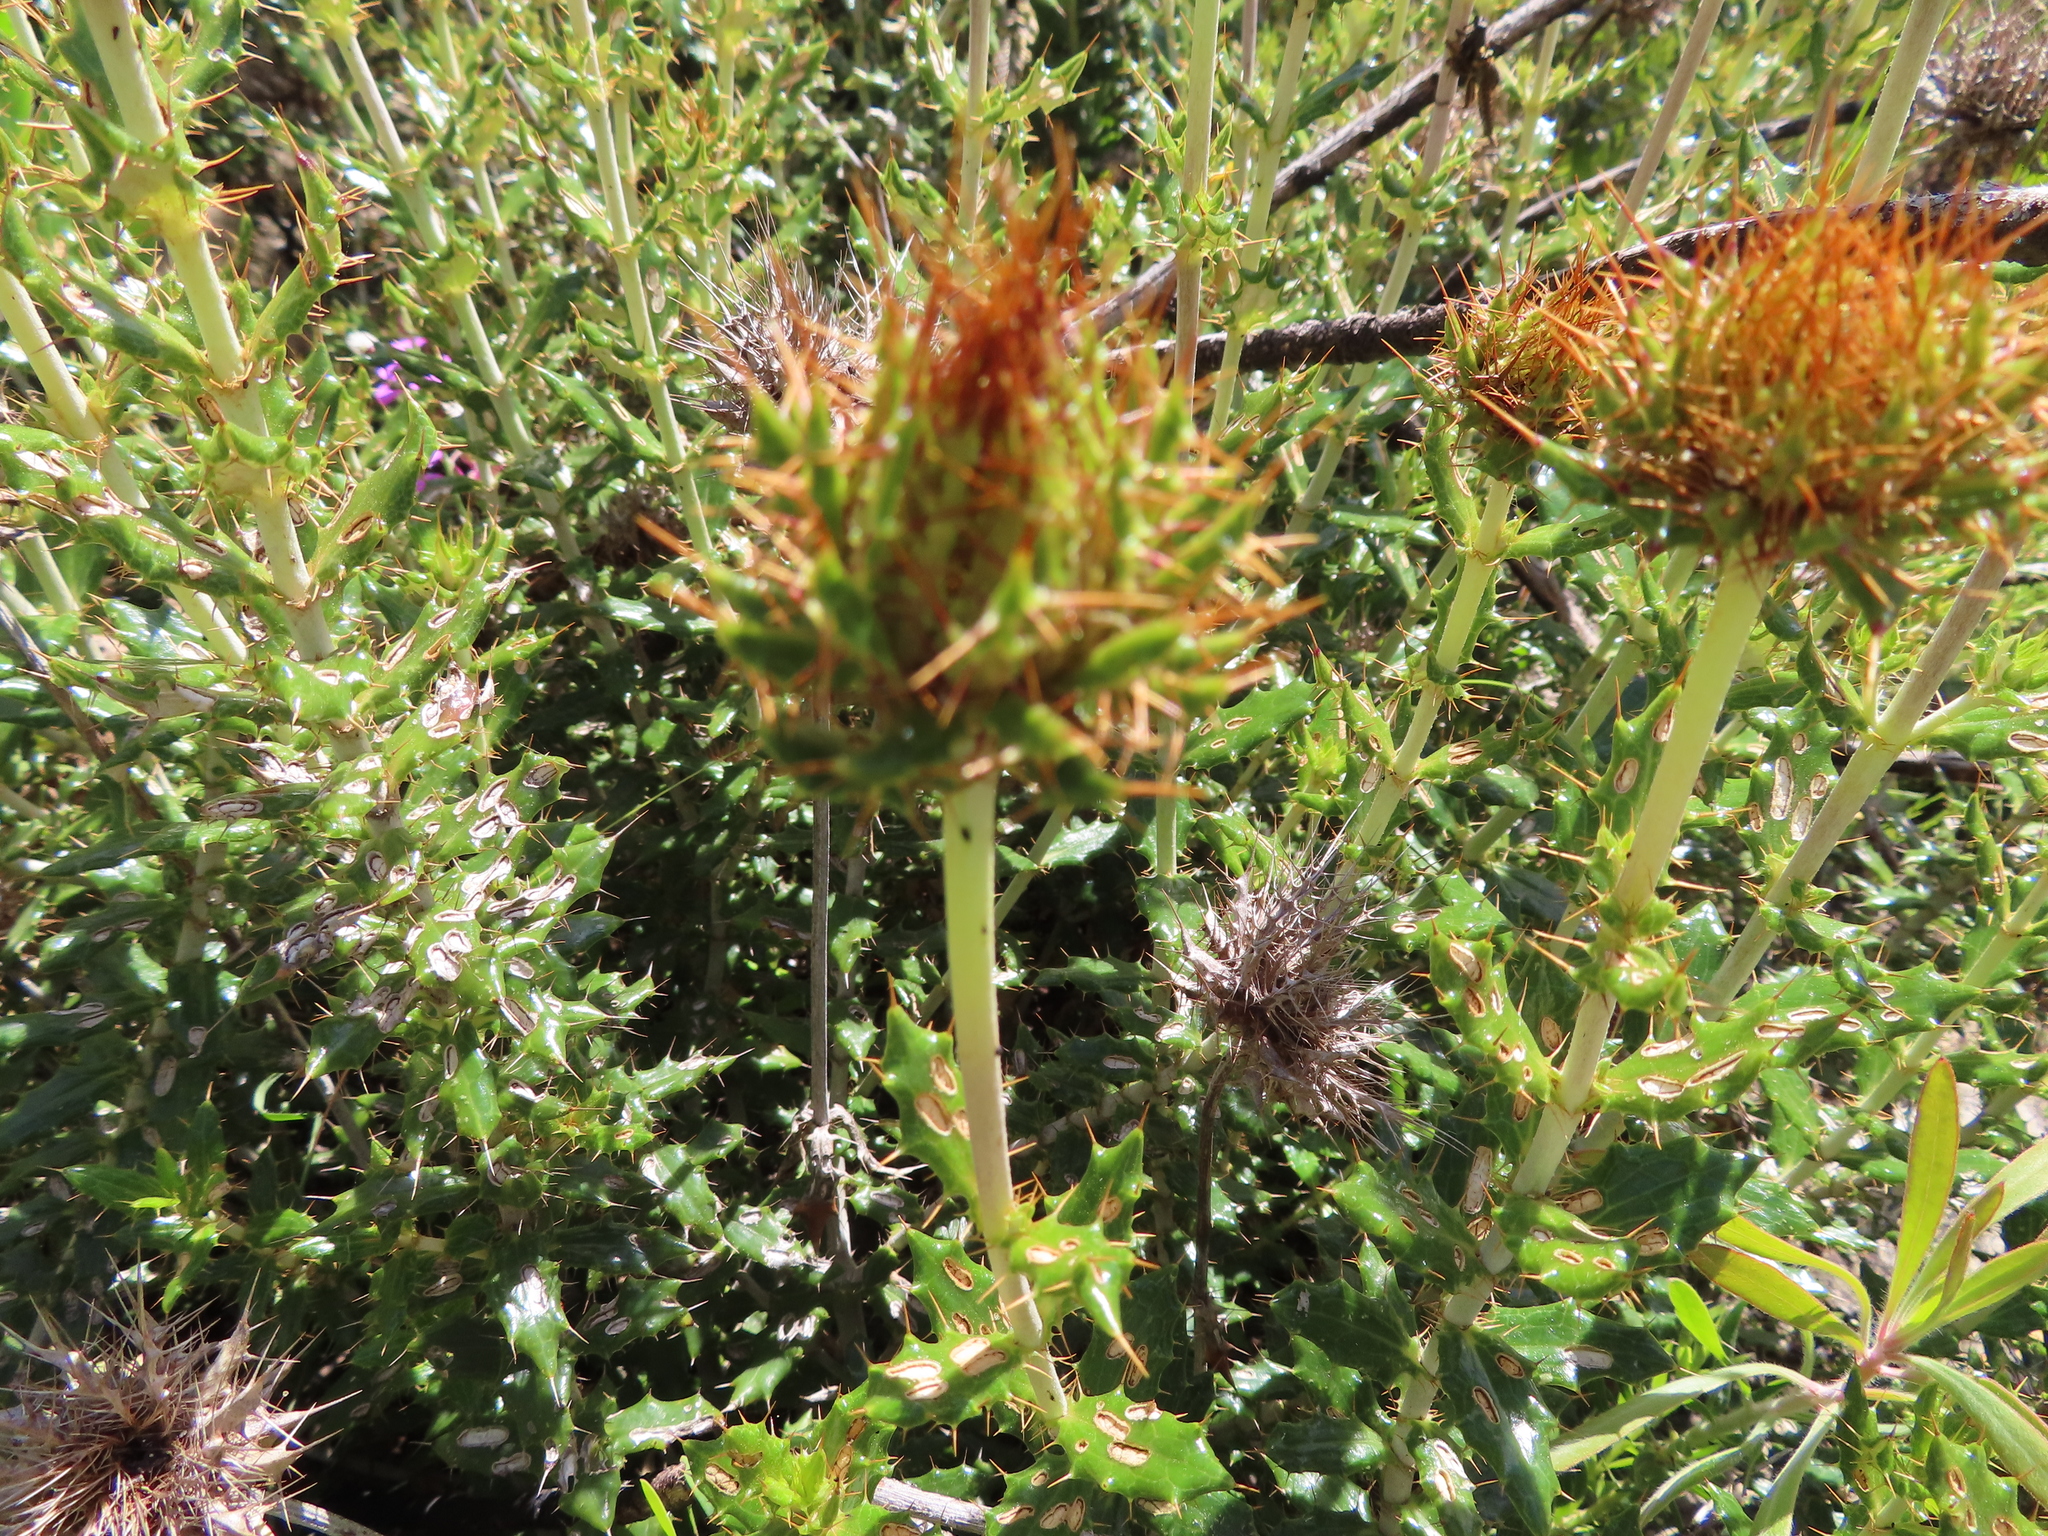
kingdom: Plantae
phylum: Tracheophyta
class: Magnoliopsida
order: Asterales
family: Asteraceae
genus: Berkheya
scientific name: Berkheya barbata
